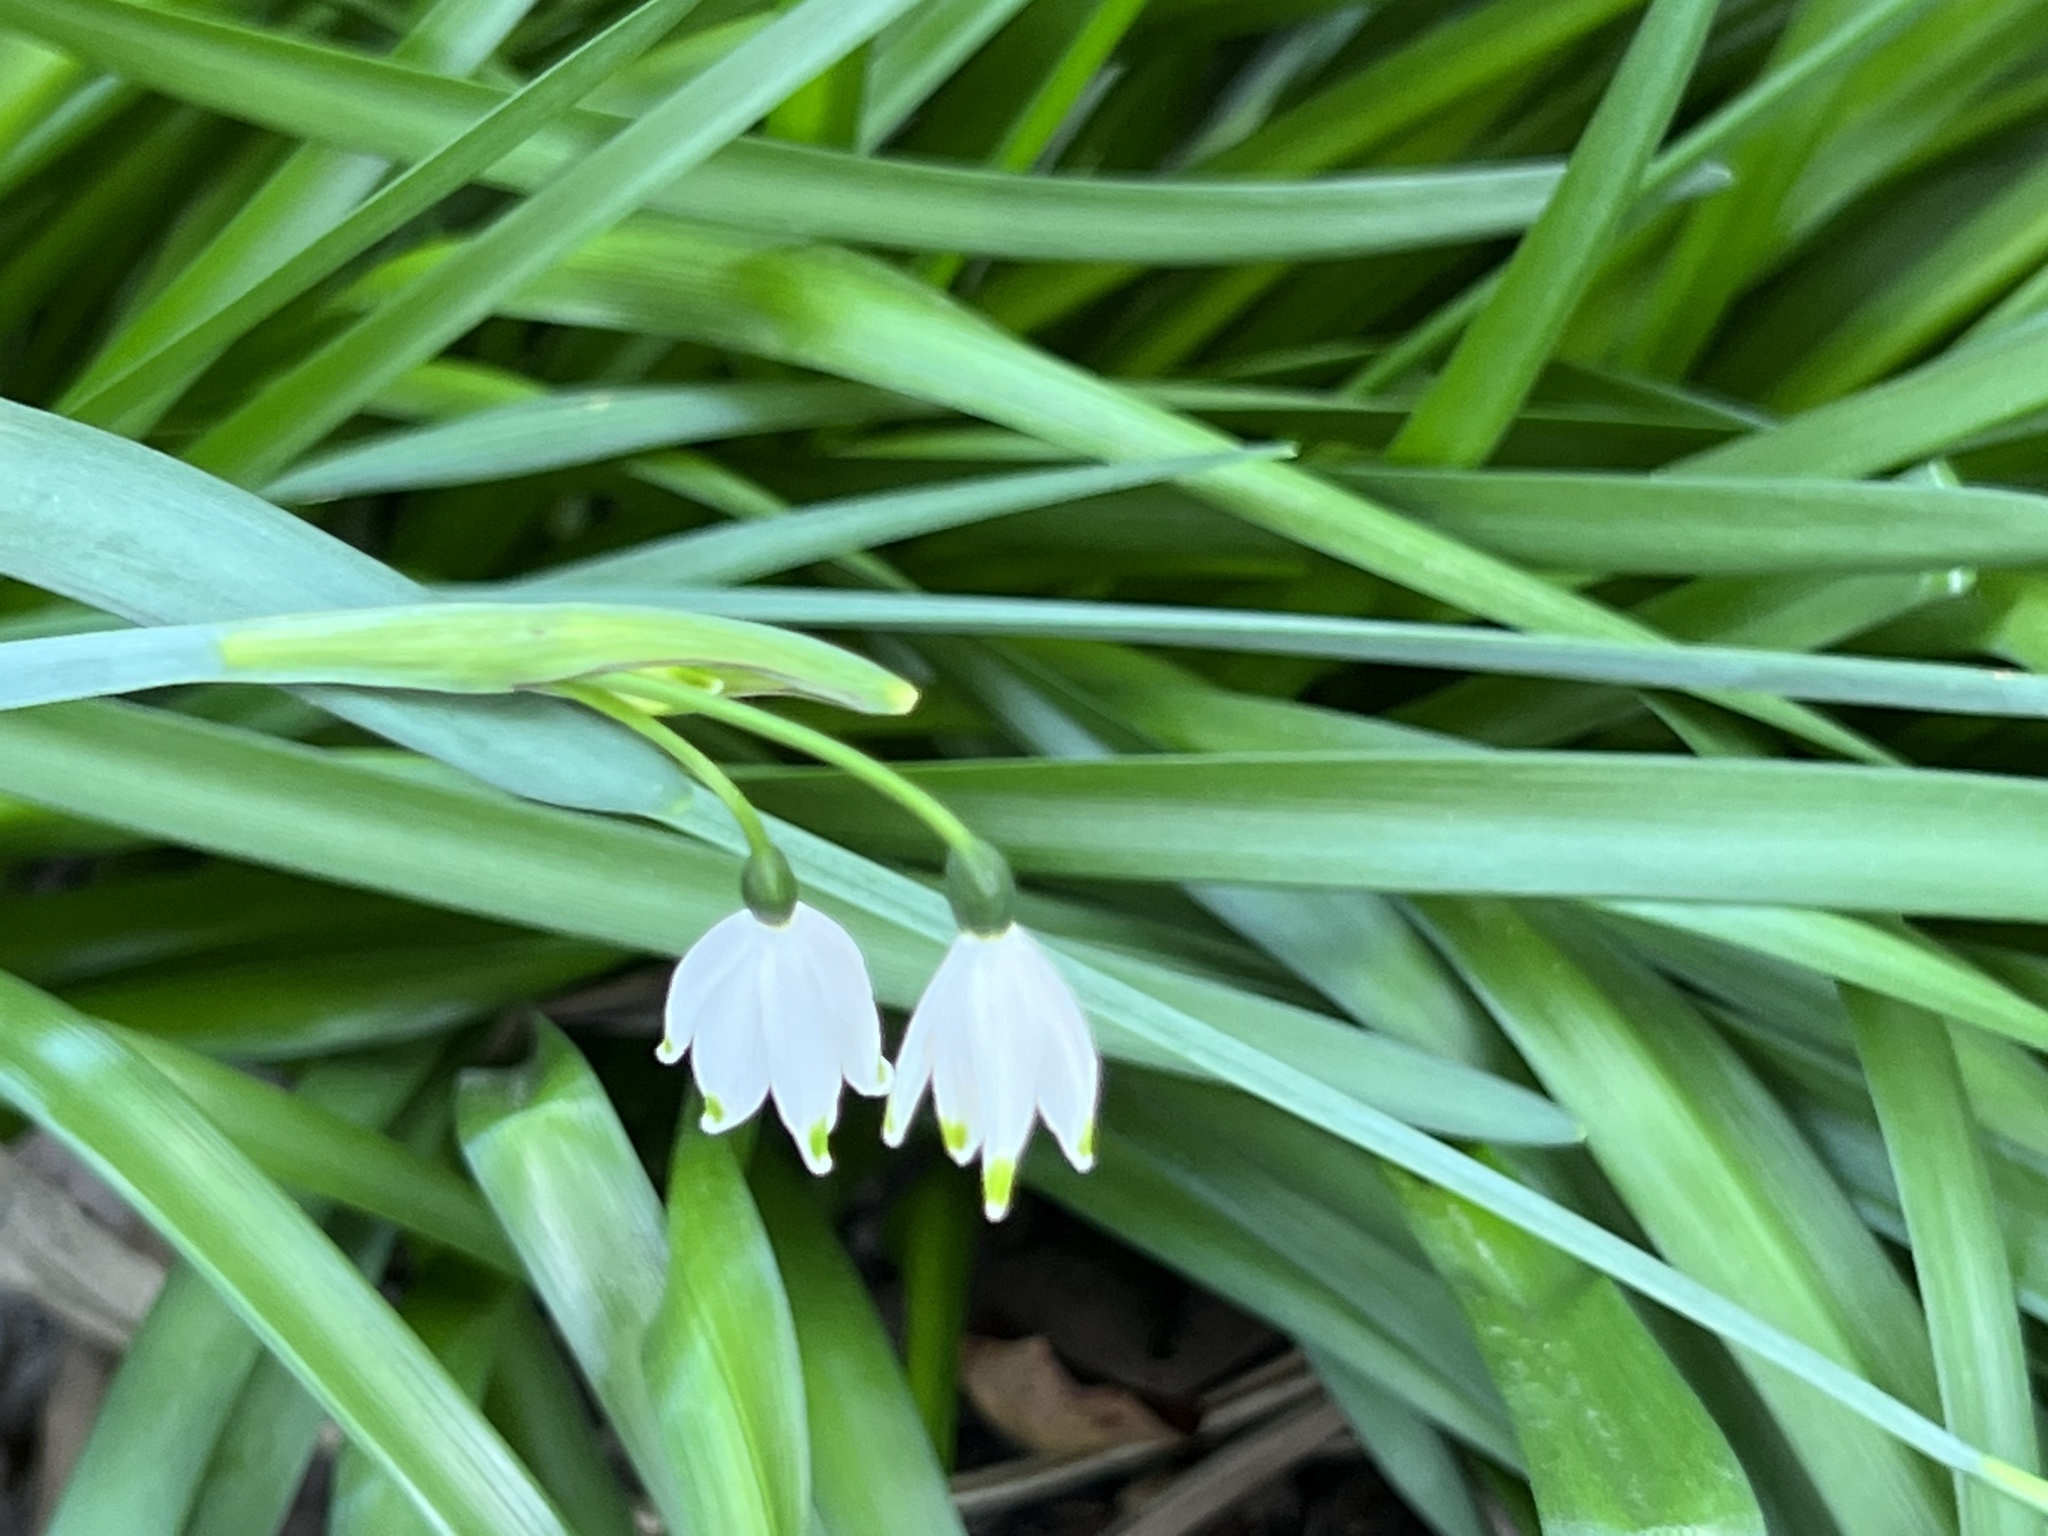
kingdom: Plantae
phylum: Tracheophyta
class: Liliopsida
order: Asparagales
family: Amaryllidaceae
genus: Leucojum
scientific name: Leucojum aestivum
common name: Summer snowflake
